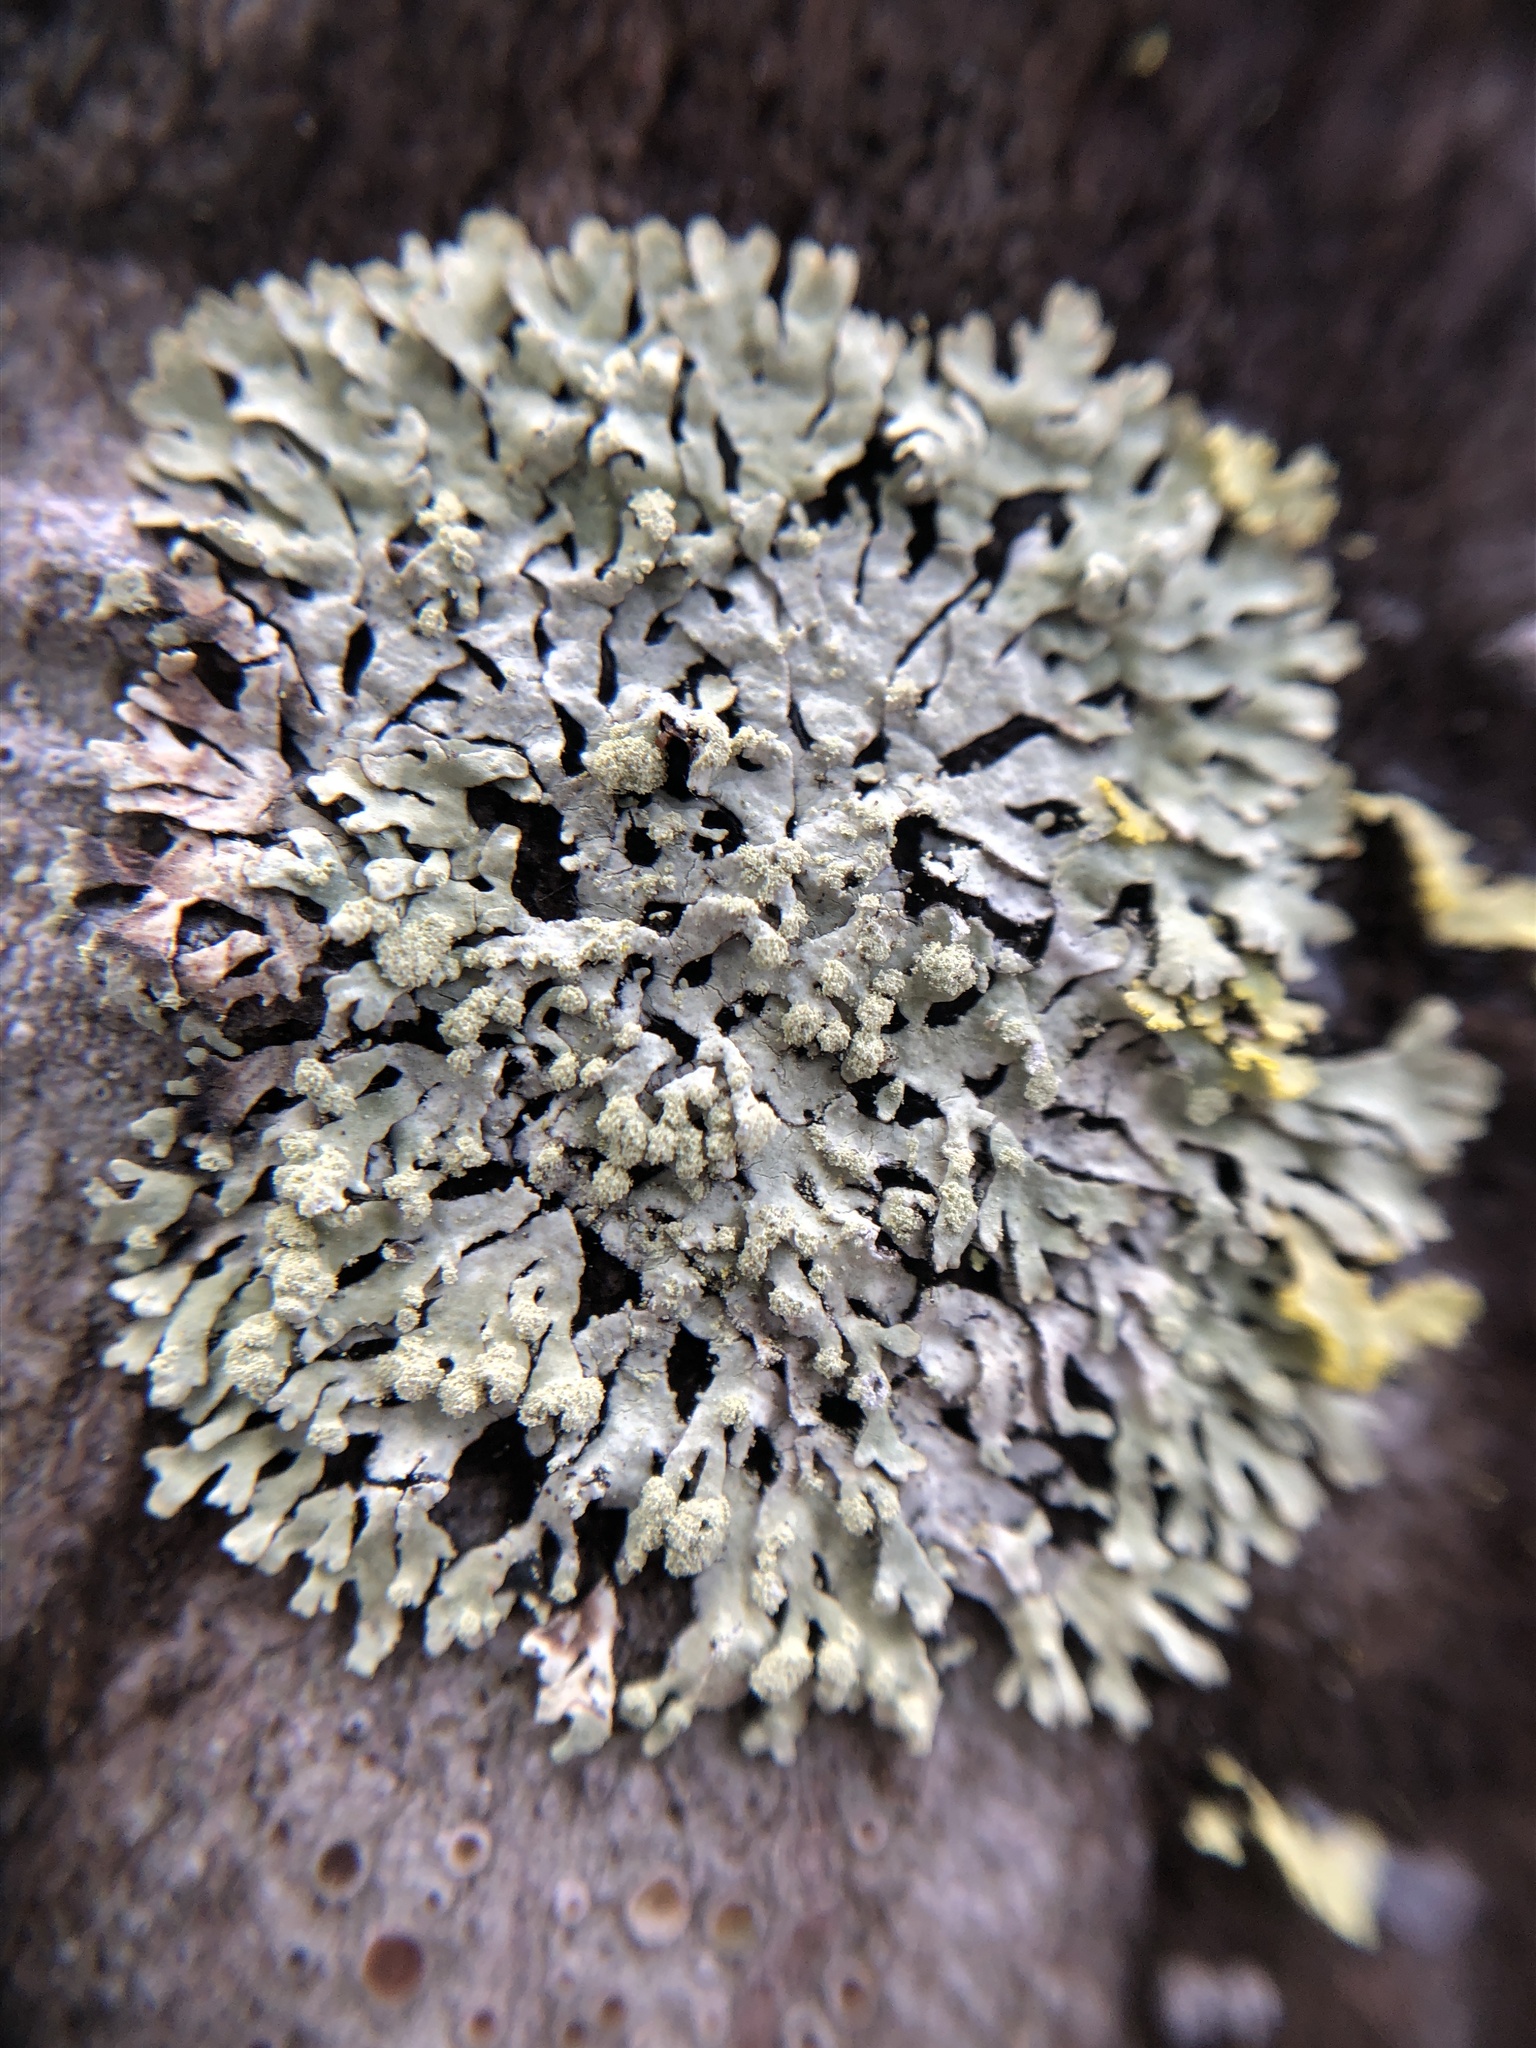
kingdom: Fungi
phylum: Ascomycota
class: Lecanoromycetes
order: Lecanorales
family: Parmeliaceae
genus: Parmeliopsis
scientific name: Parmeliopsis hyperopta
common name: Grey starburst lichen
